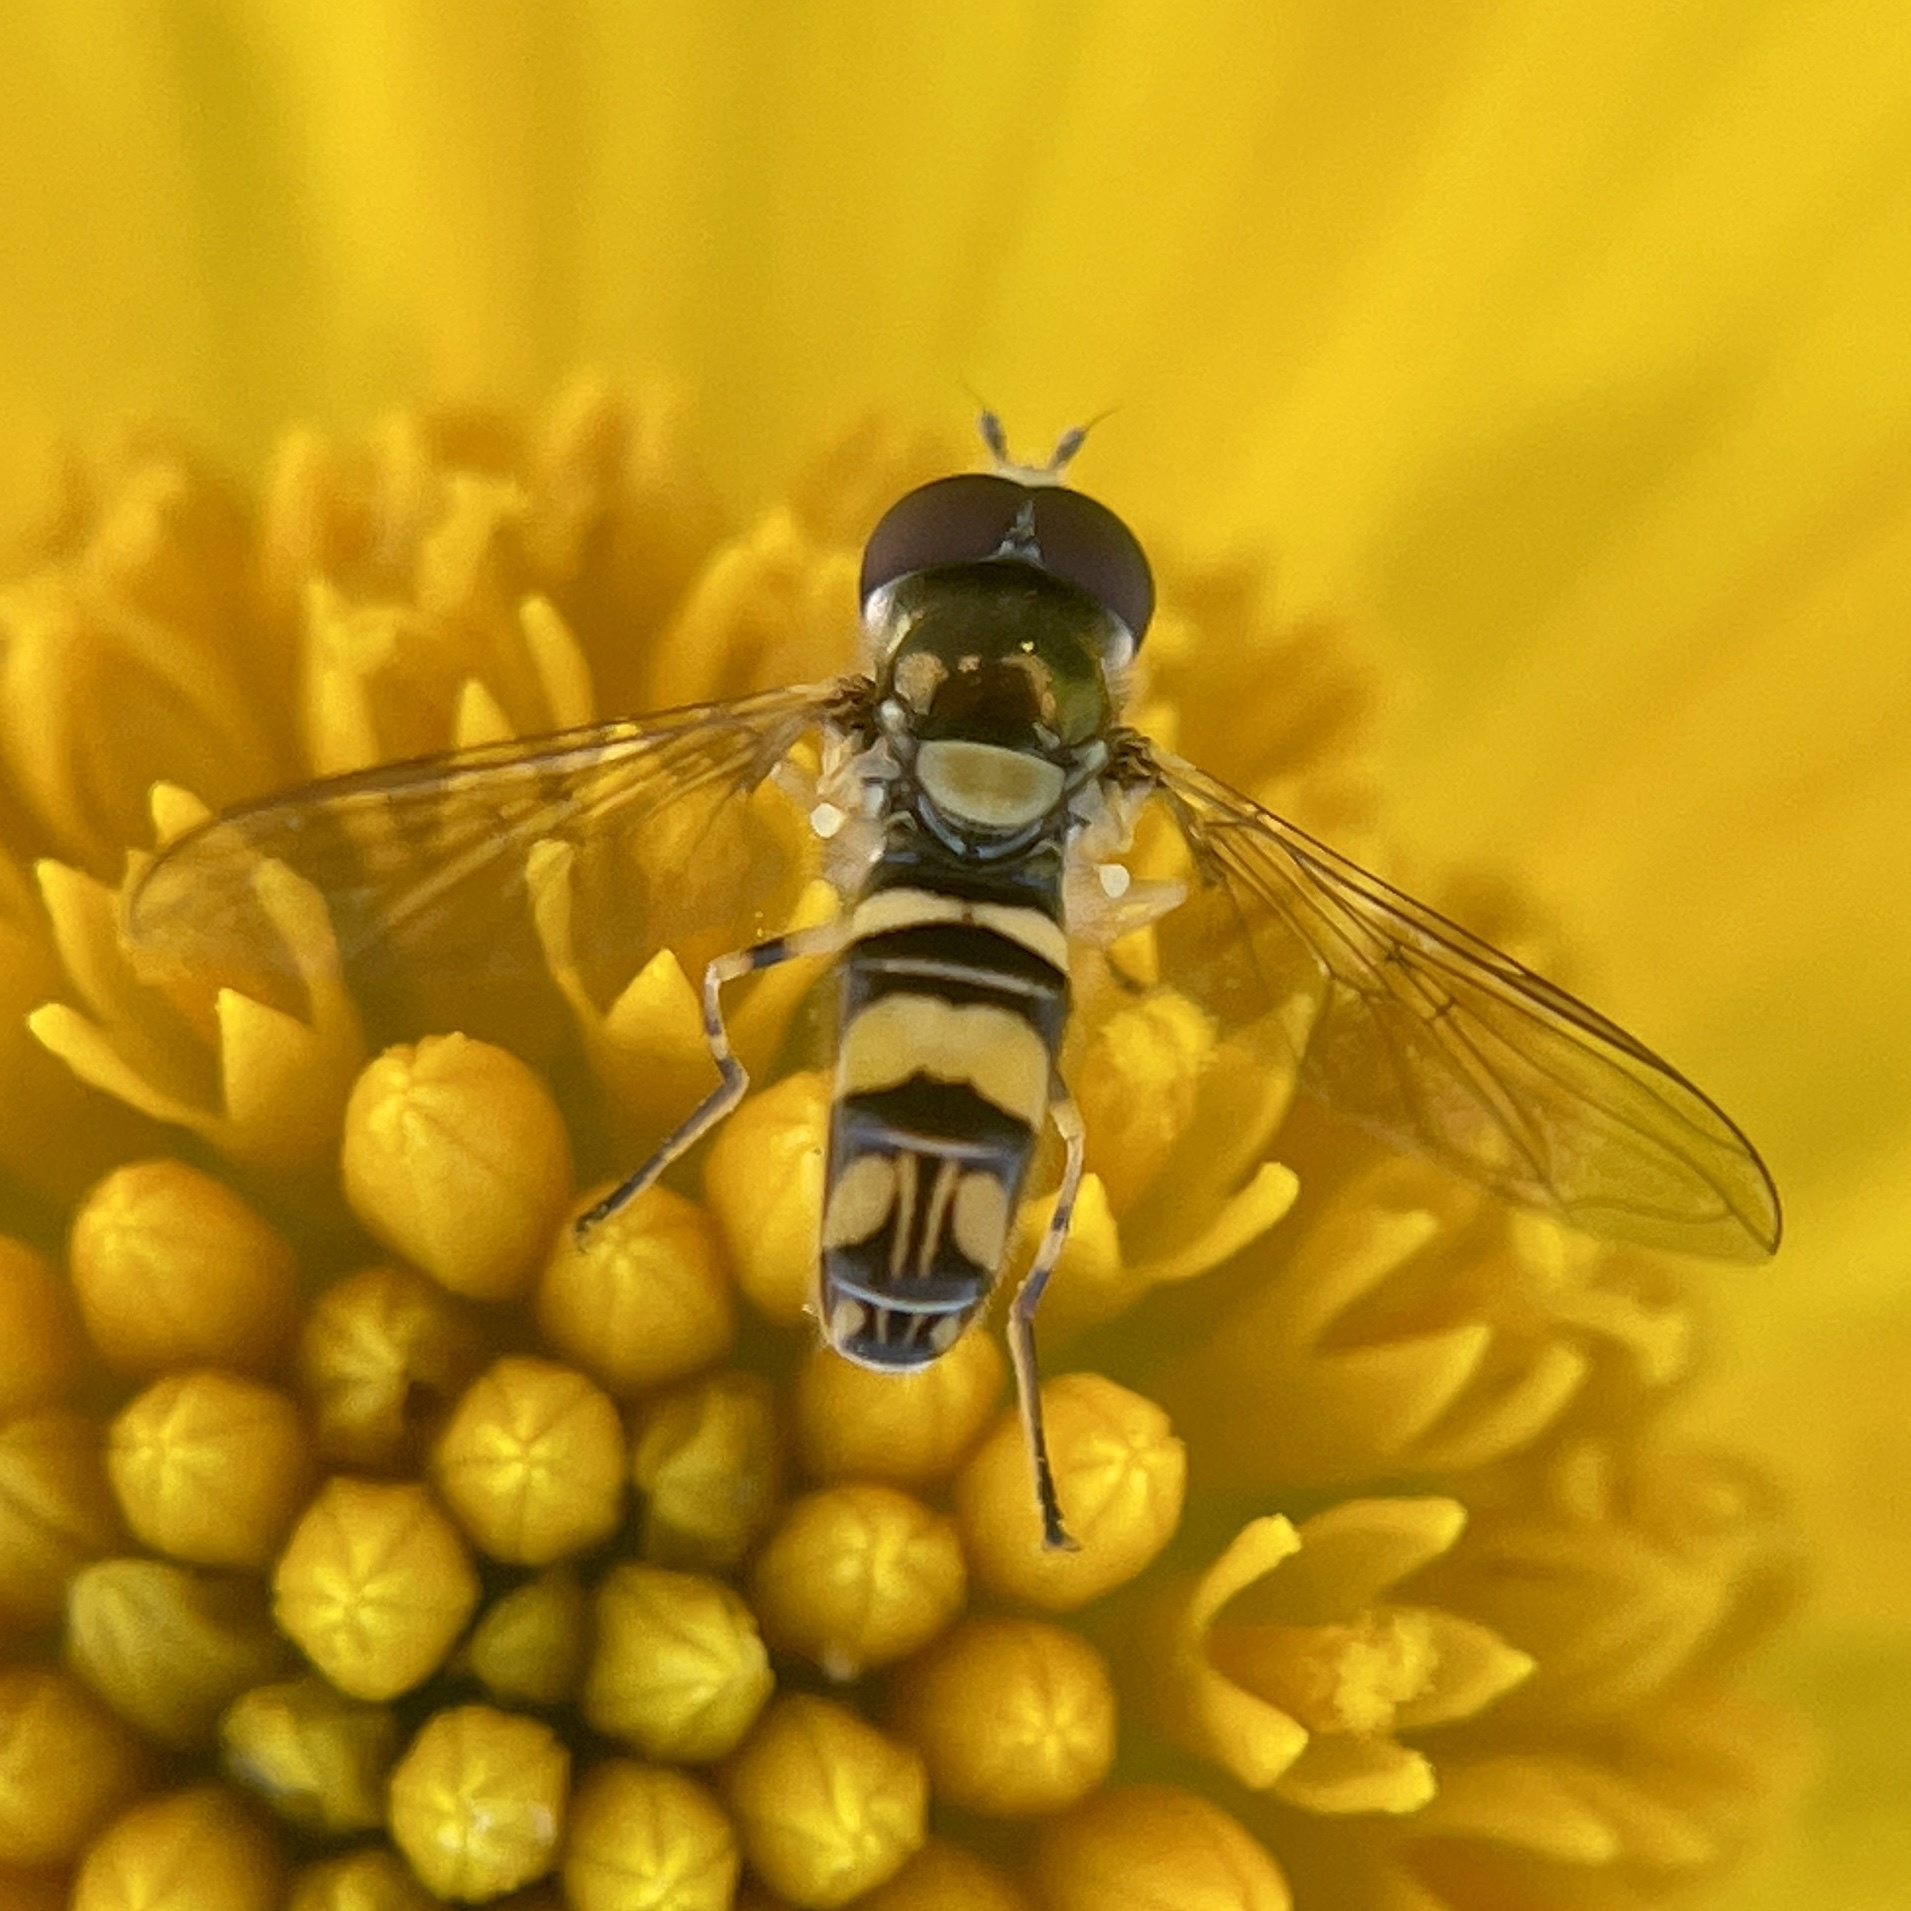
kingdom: Animalia
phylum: Arthropoda
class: Insecta
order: Diptera
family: Syrphidae
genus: Allograpta
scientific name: Allograpta exotica
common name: Syrphid fly
